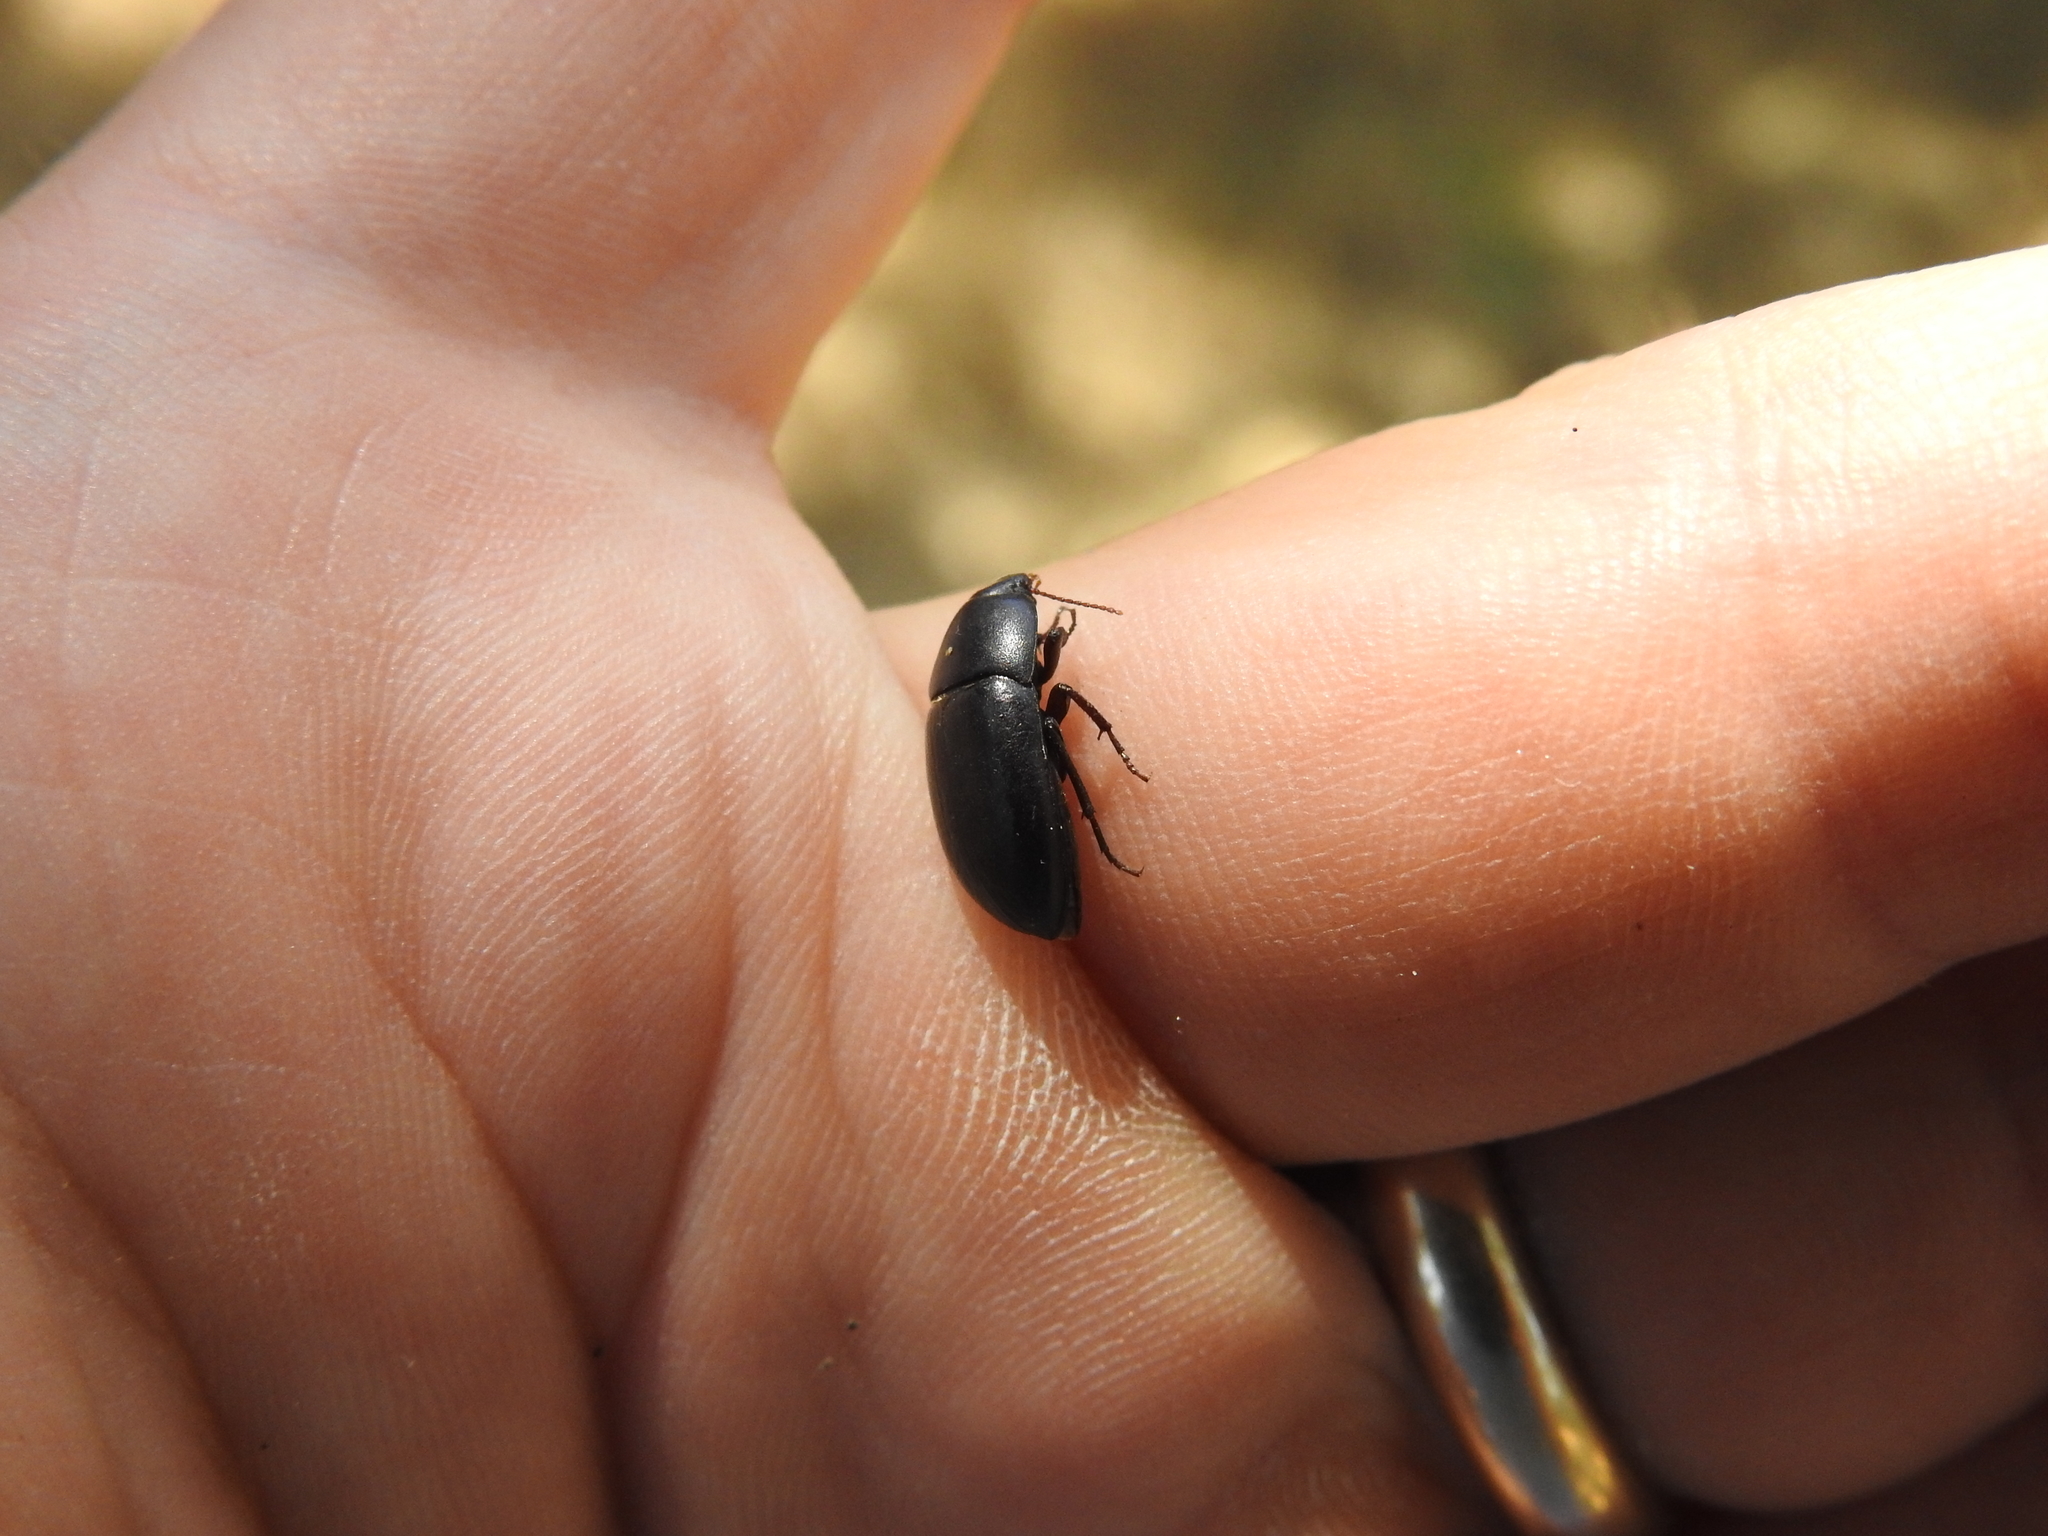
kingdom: Animalia
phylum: Arthropoda
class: Insecta
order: Coleoptera
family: Tenebrionidae
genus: Coniontis
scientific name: Coniontis
